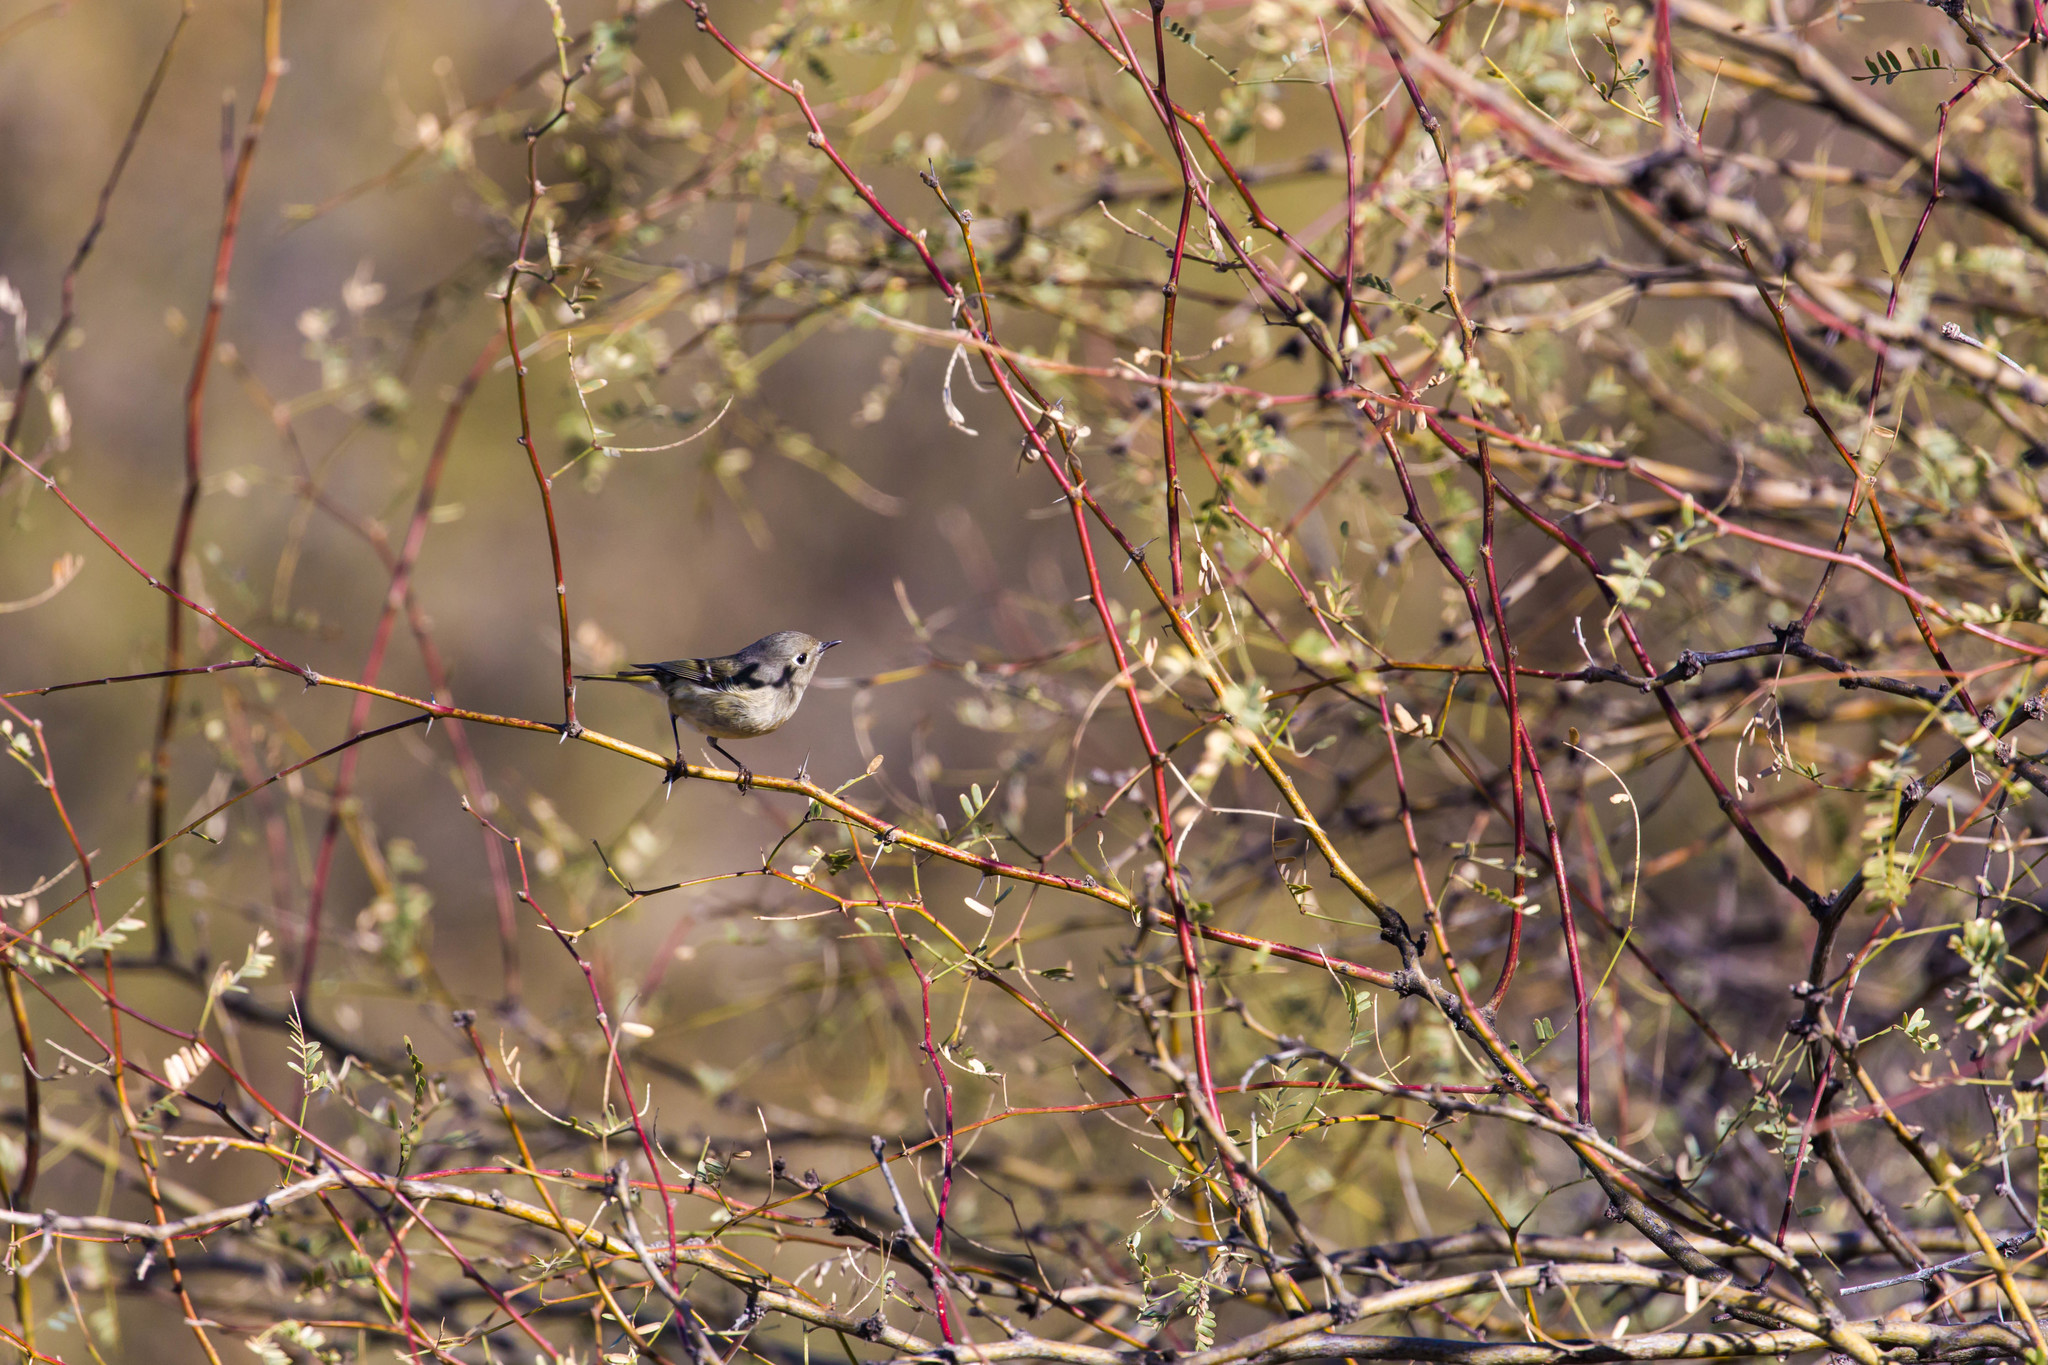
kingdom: Animalia
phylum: Chordata
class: Aves
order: Passeriformes
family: Regulidae
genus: Regulus
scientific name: Regulus calendula
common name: Ruby-crowned kinglet
